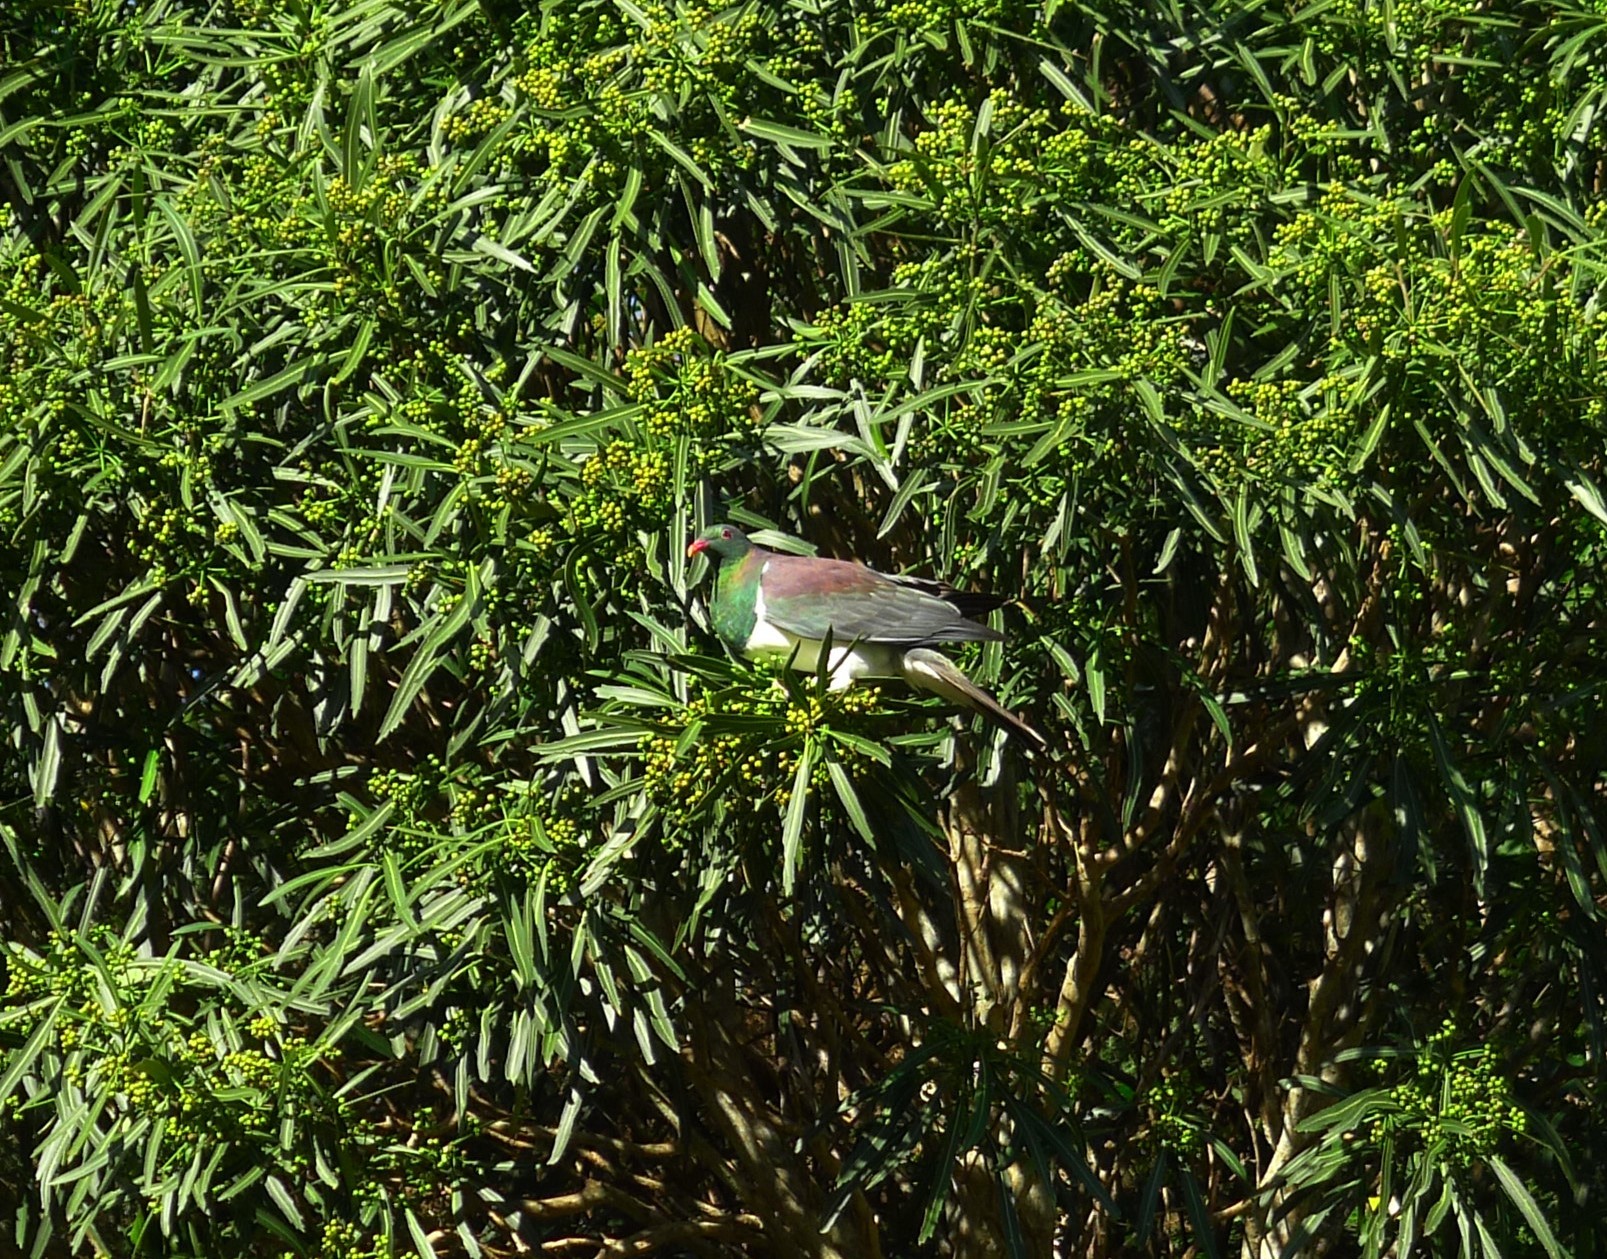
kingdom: Animalia
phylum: Chordata
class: Aves
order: Columbiformes
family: Columbidae
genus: Hemiphaga
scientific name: Hemiphaga novaeseelandiae
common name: New zealand pigeon
